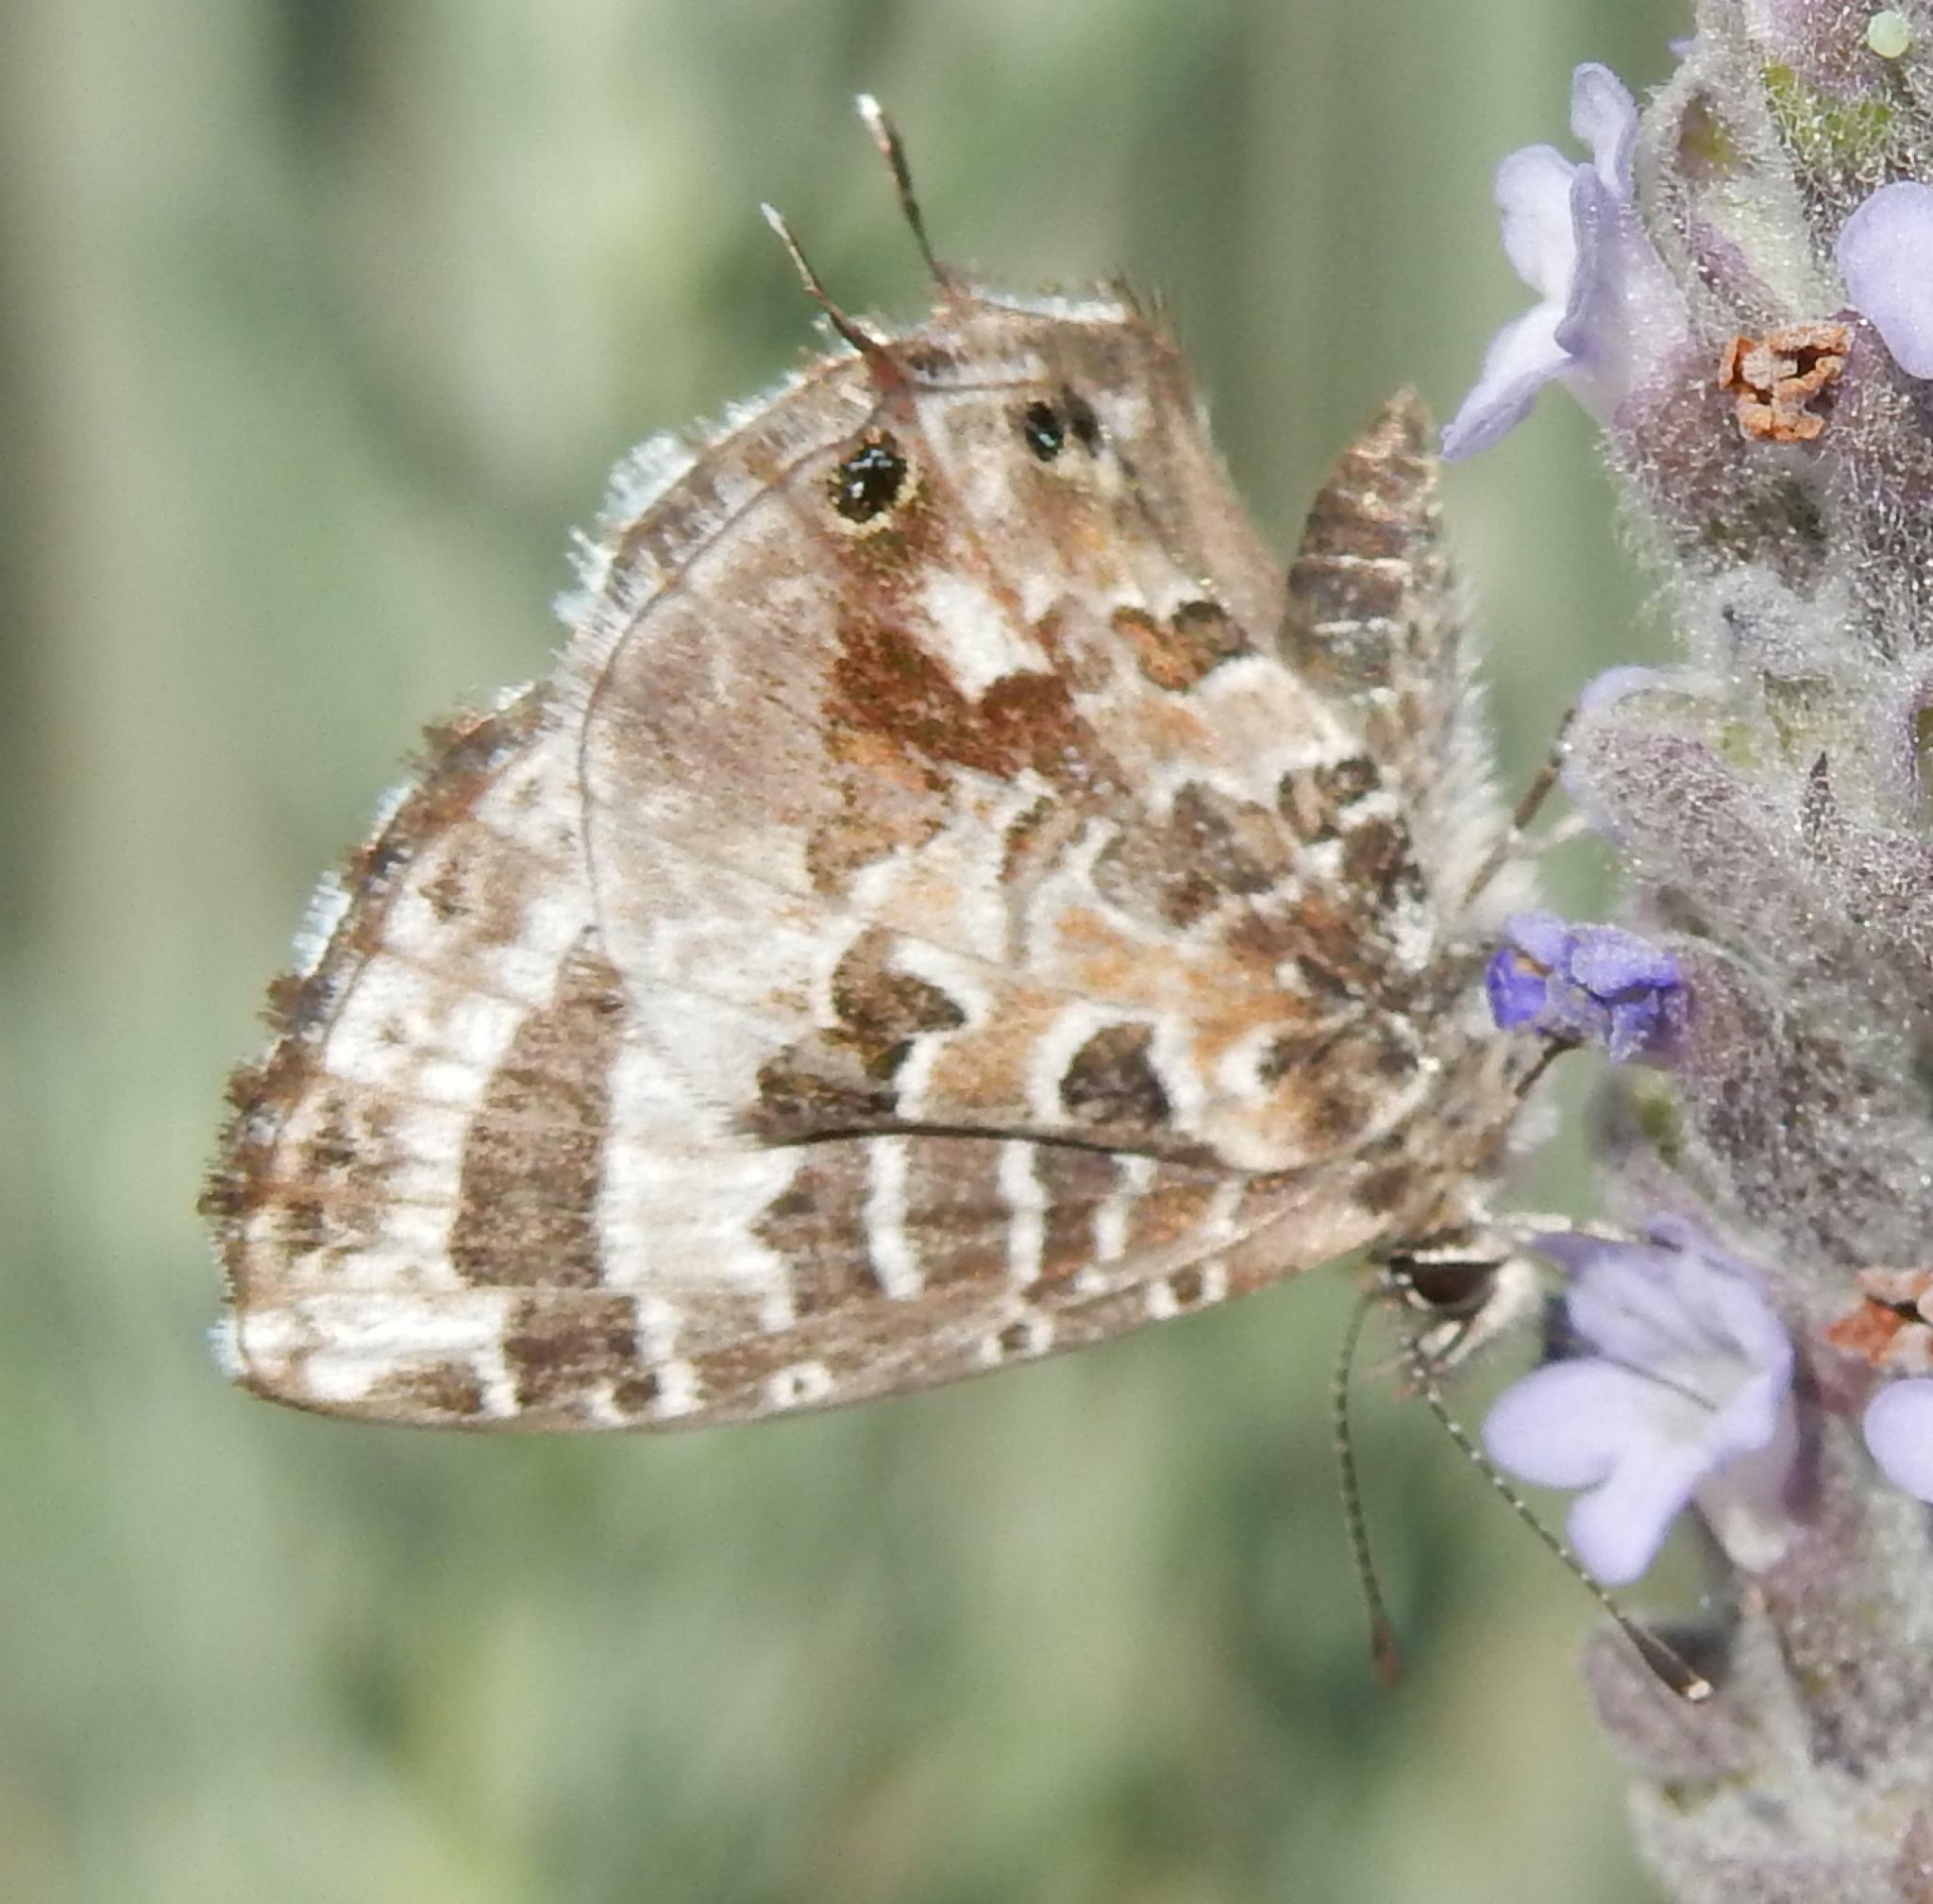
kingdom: Animalia
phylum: Arthropoda
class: Insecta
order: Lepidoptera
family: Lycaenidae
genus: Cacyreus
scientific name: Cacyreus lingeus
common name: Bush bronze
